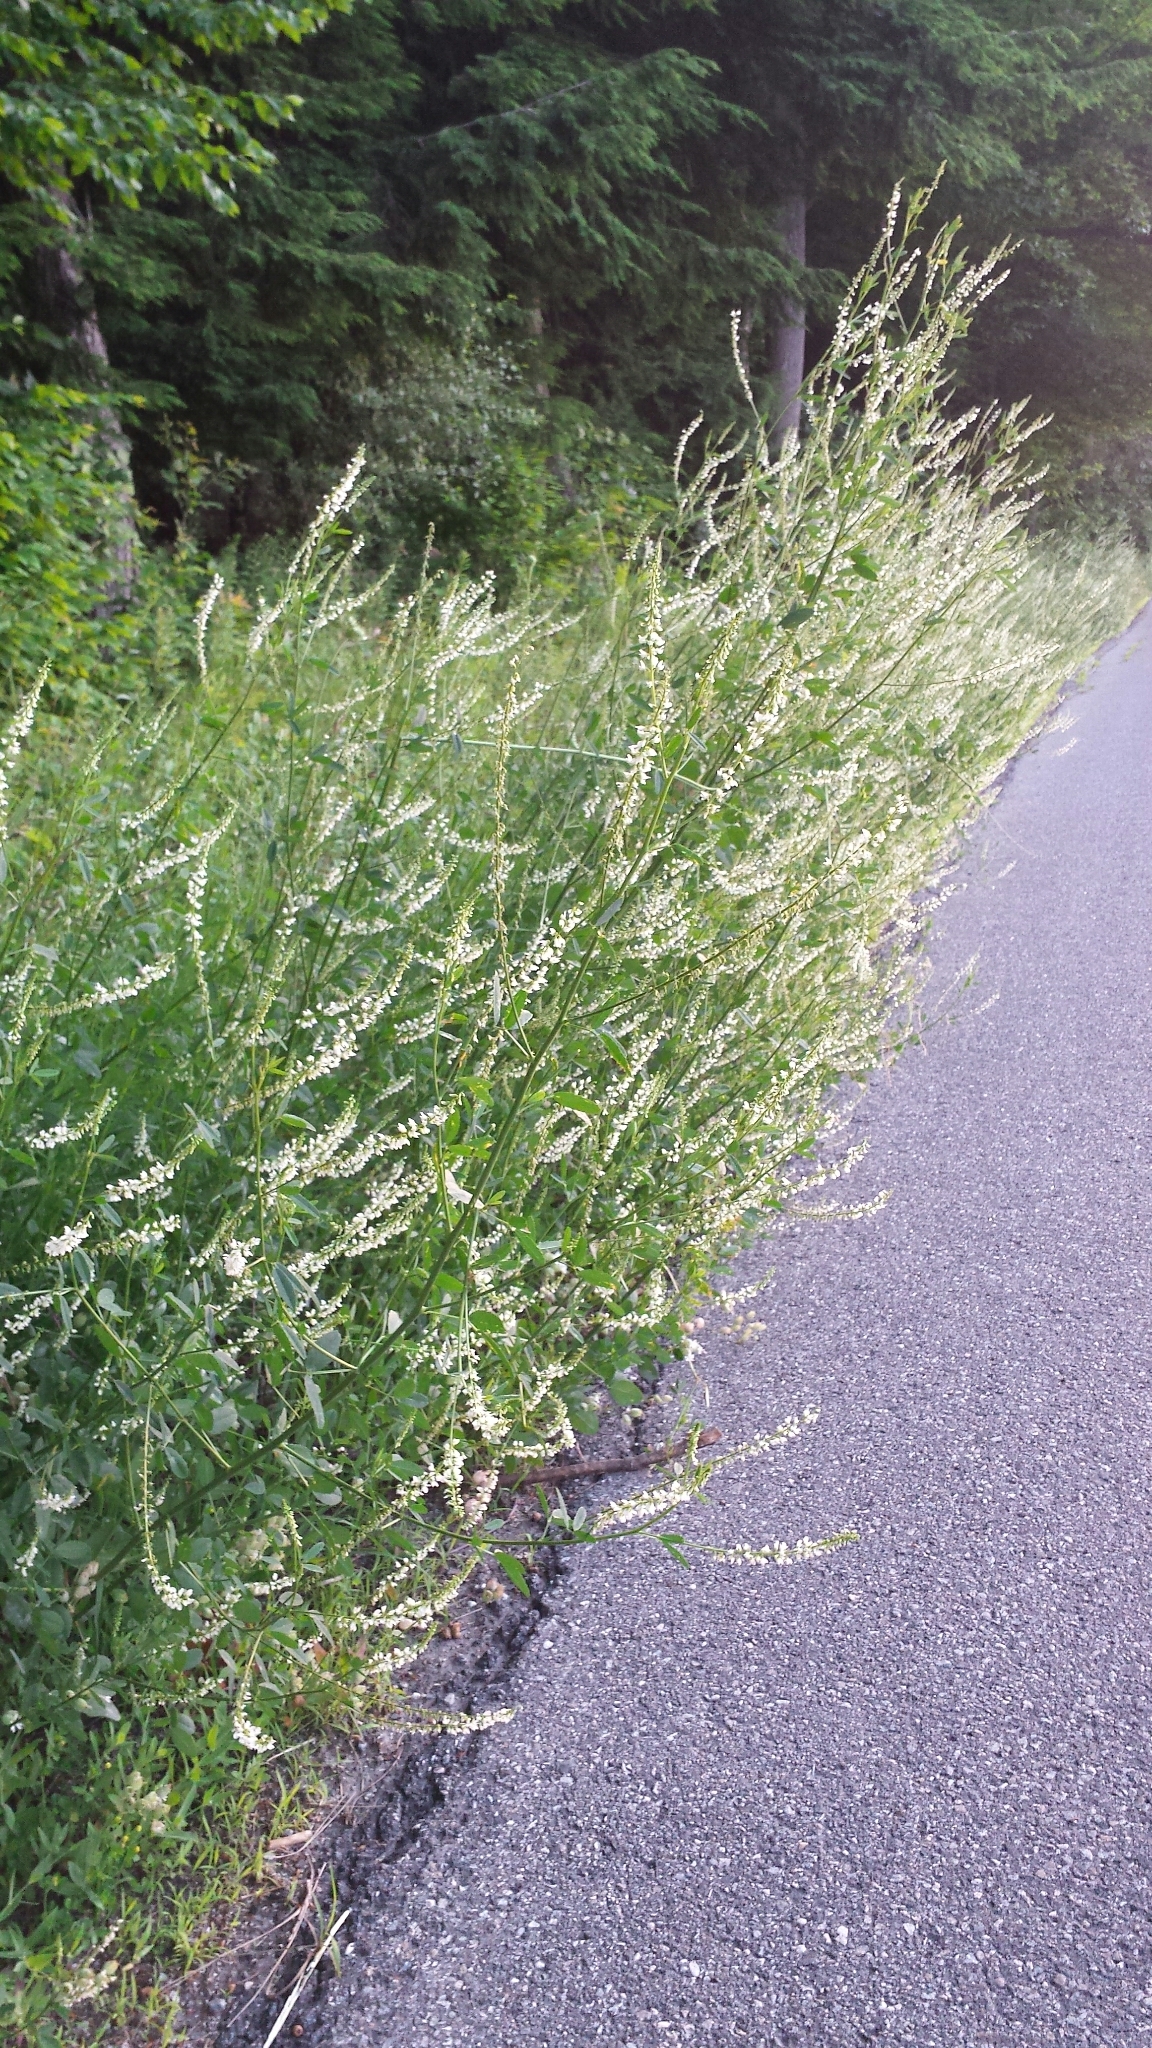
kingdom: Plantae
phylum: Tracheophyta
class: Magnoliopsida
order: Fabales
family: Fabaceae
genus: Melilotus
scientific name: Melilotus albus
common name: White melilot
